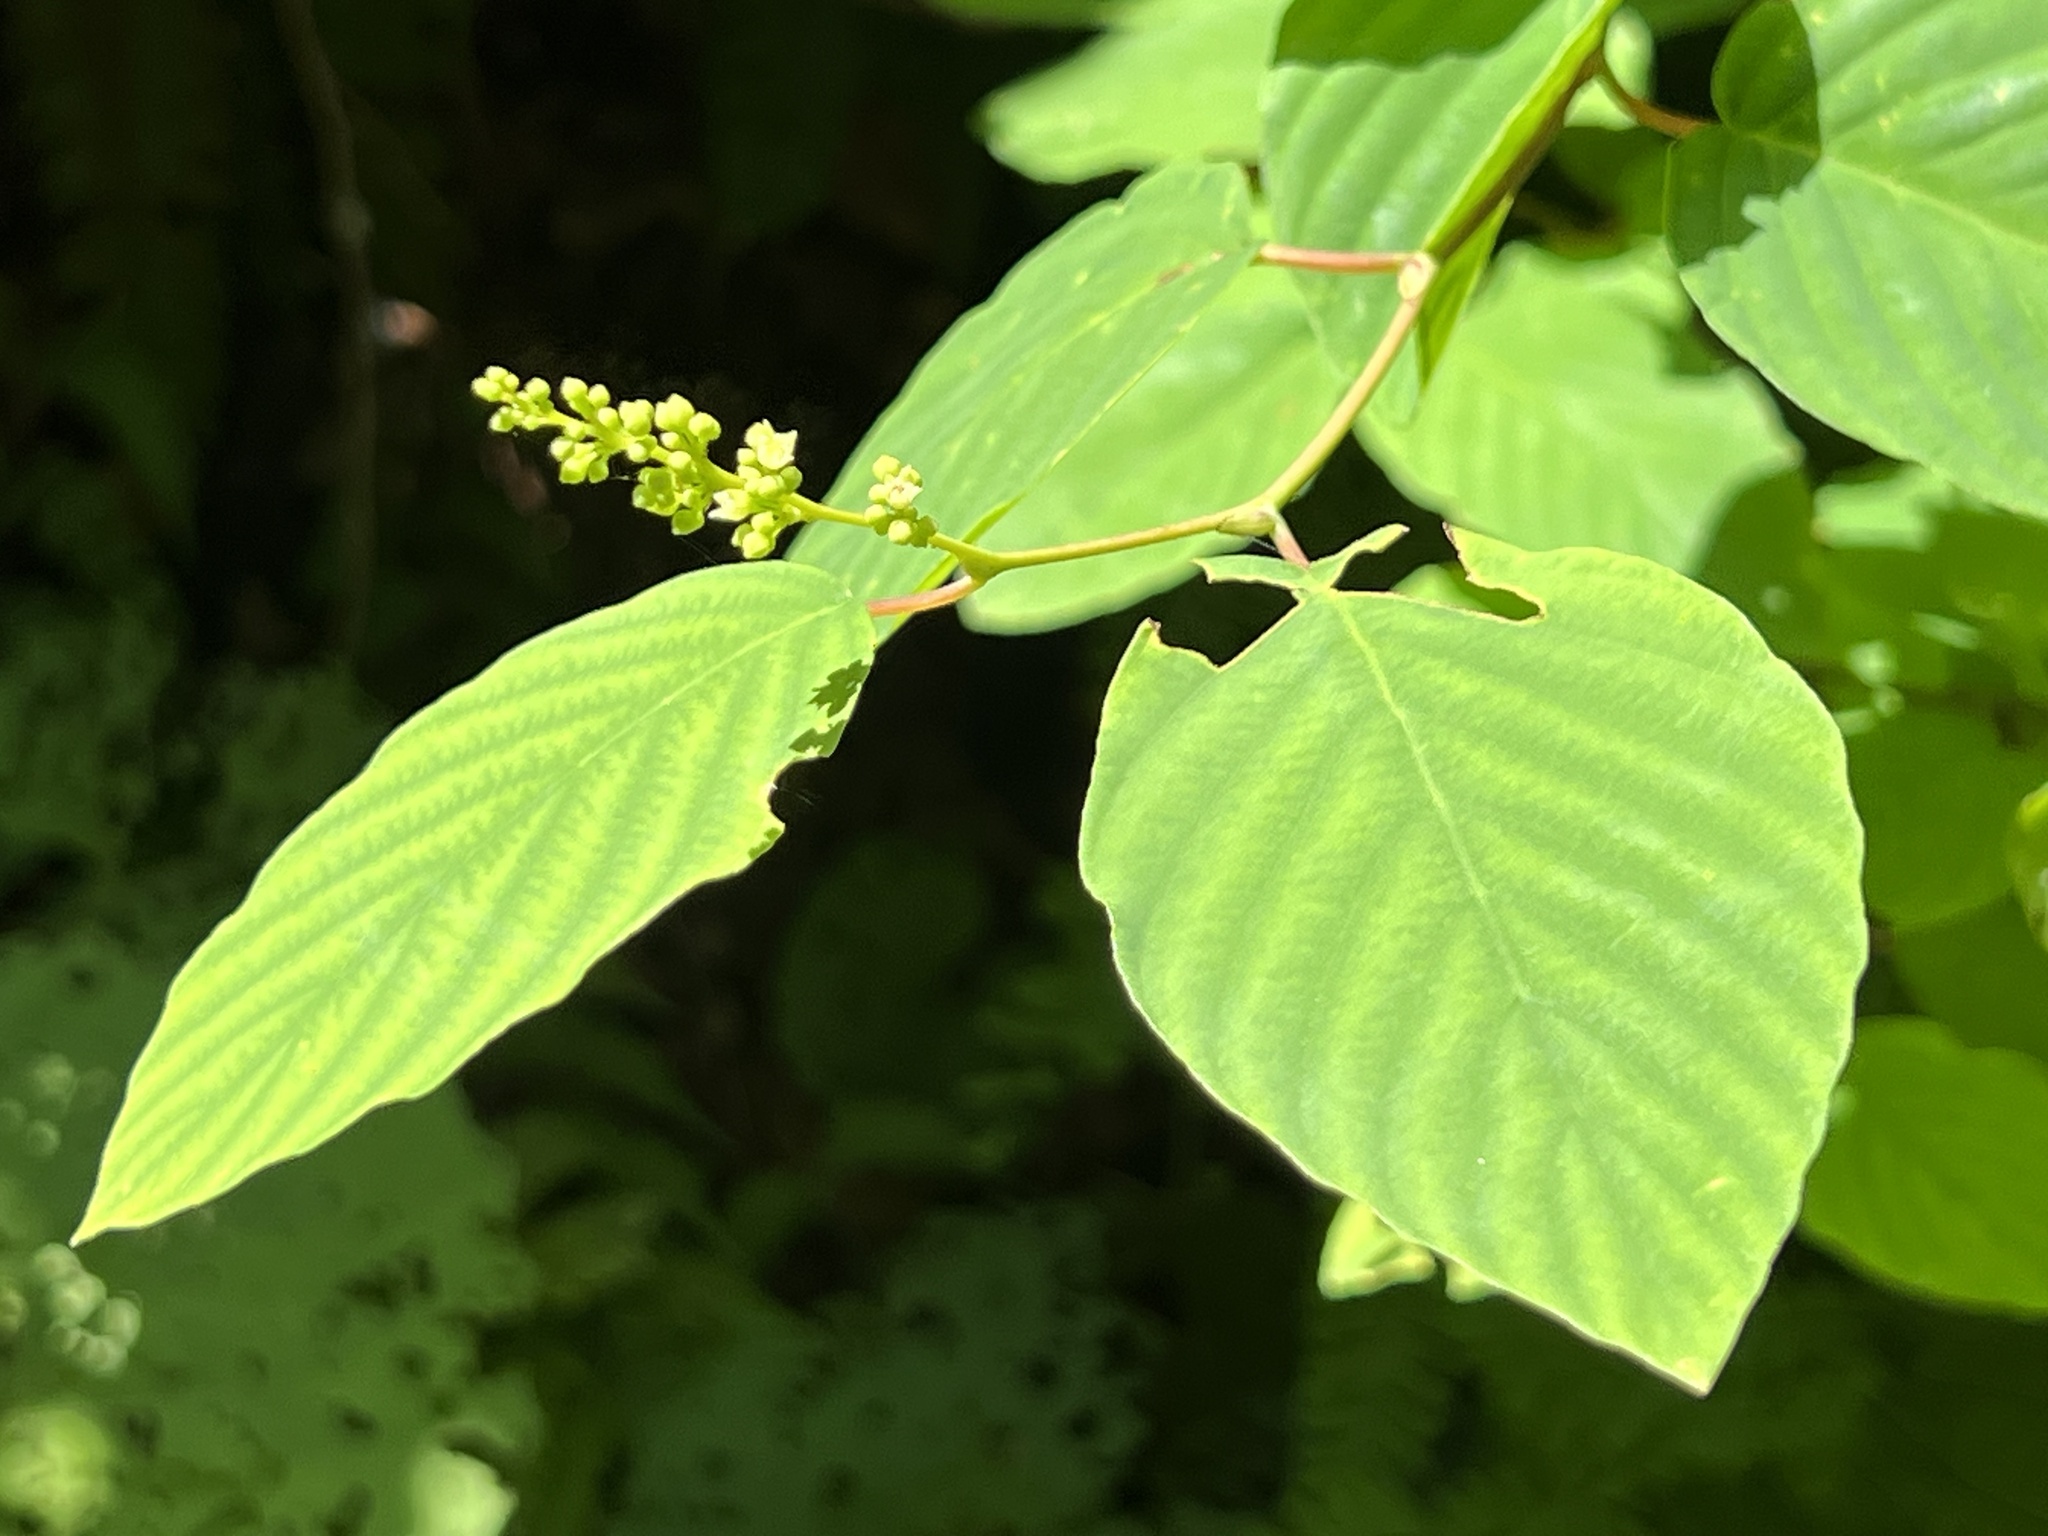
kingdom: Plantae
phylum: Tracheophyta
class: Magnoliopsida
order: Rosales
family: Rhamnaceae
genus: Berchemia
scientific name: Berchemia floribunda
